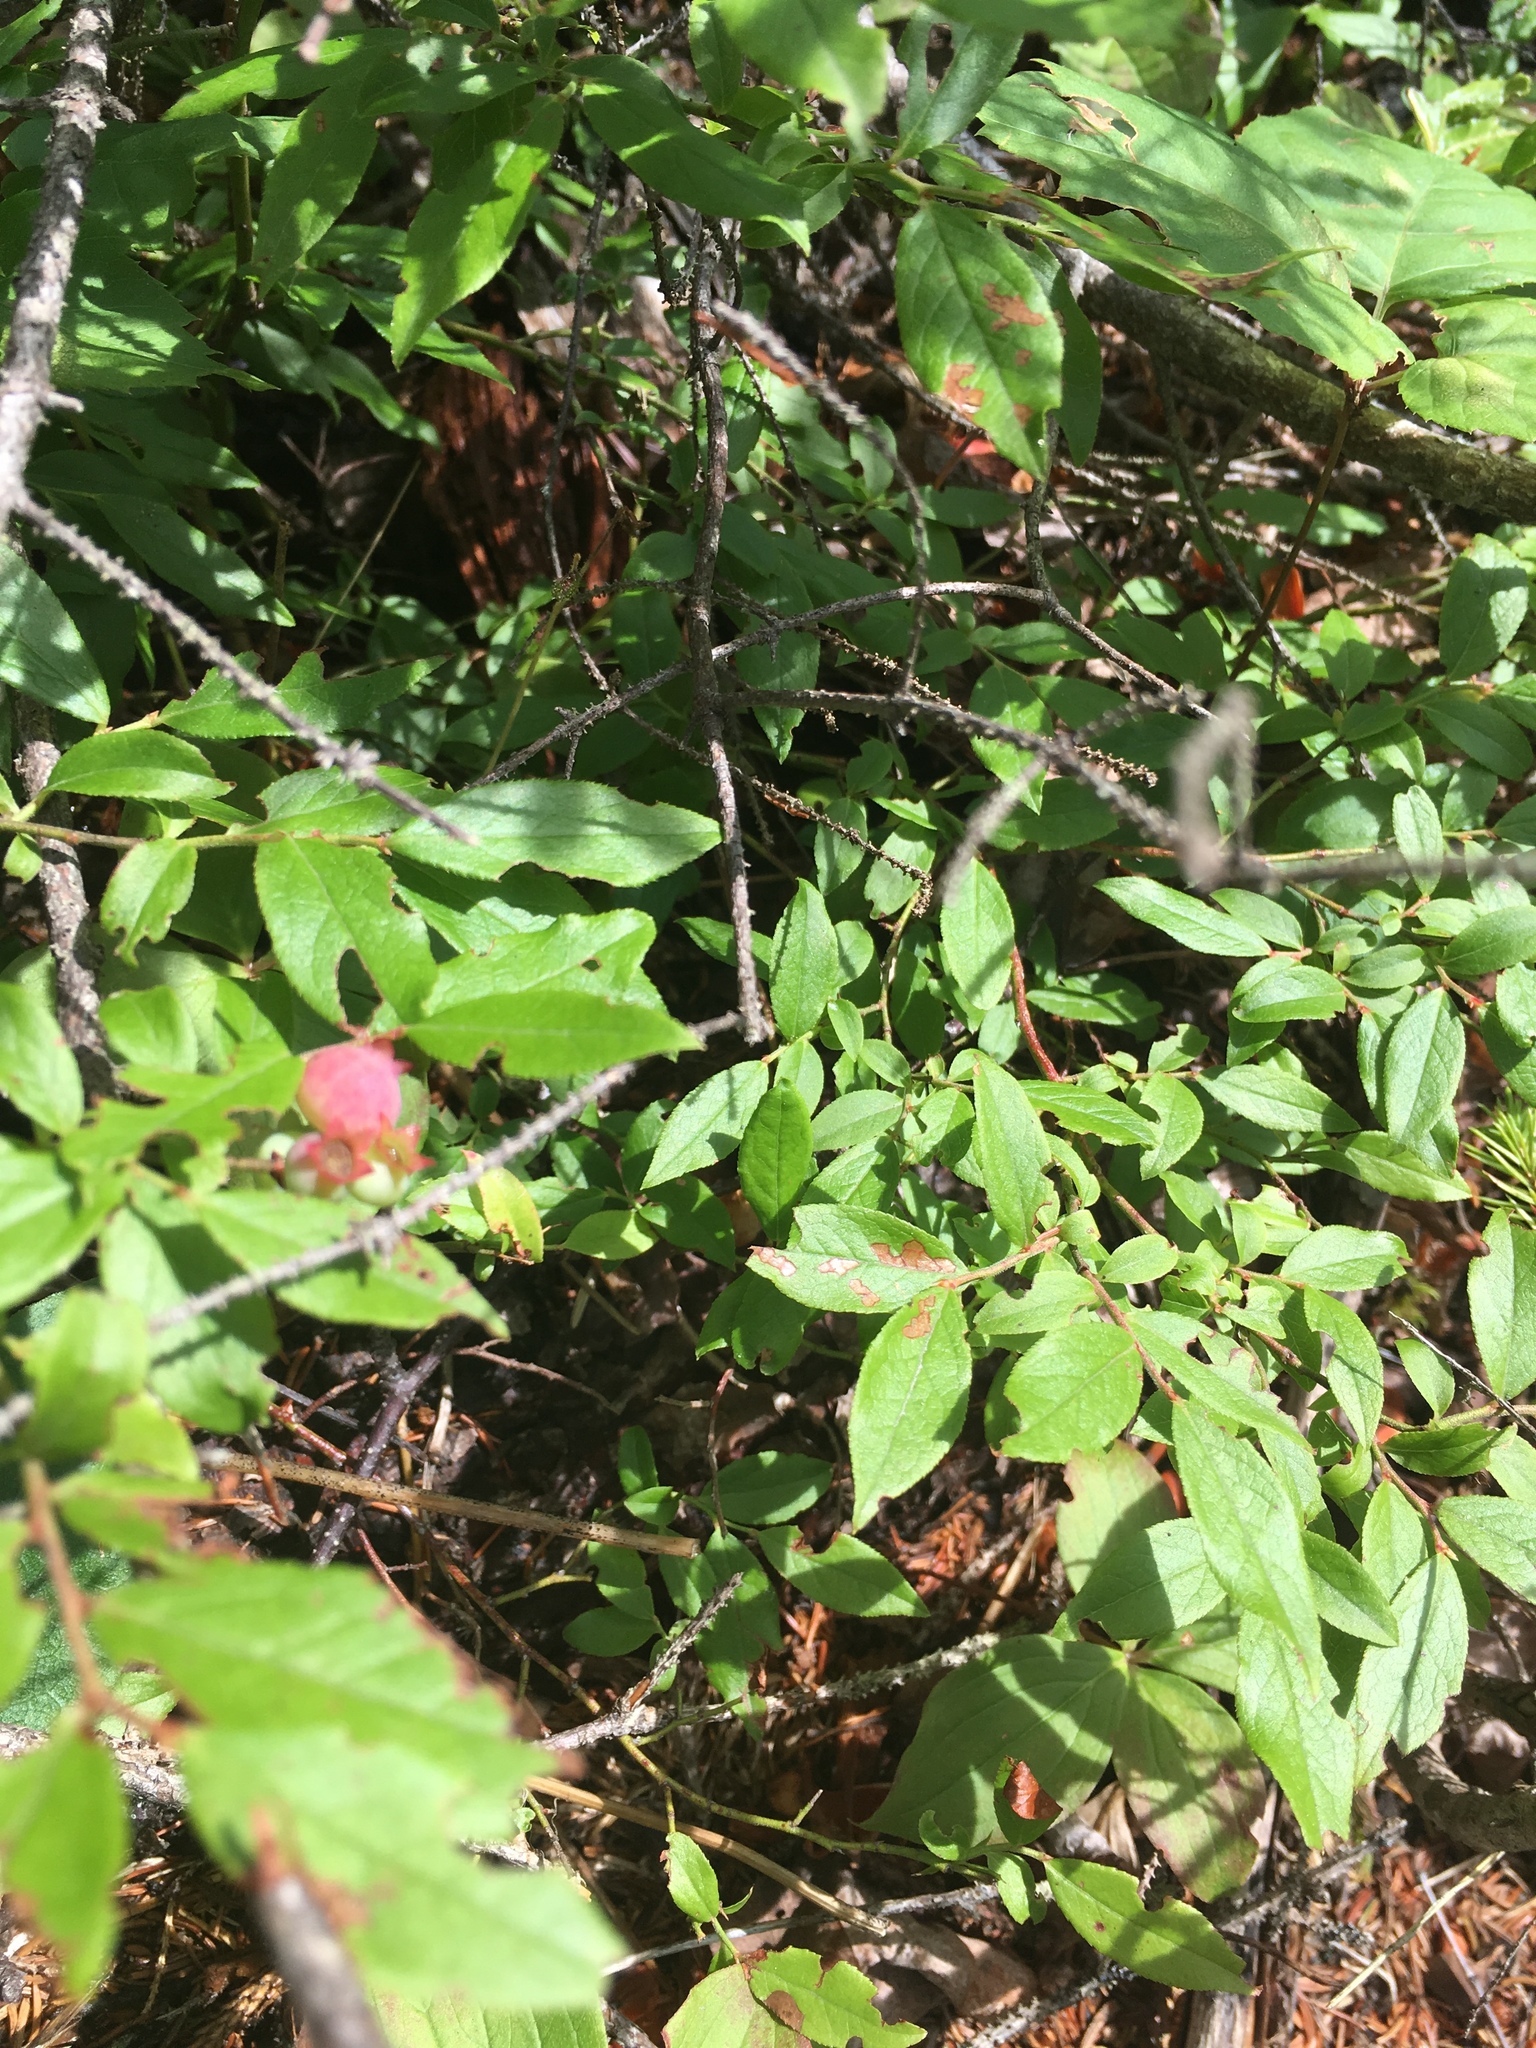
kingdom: Plantae
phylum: Tracheophyta
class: Magnoliopsida
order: Ericales
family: Ericaceae
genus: Vaccinium
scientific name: Vaccinium angustifolium
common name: Early lowbush blueberry
